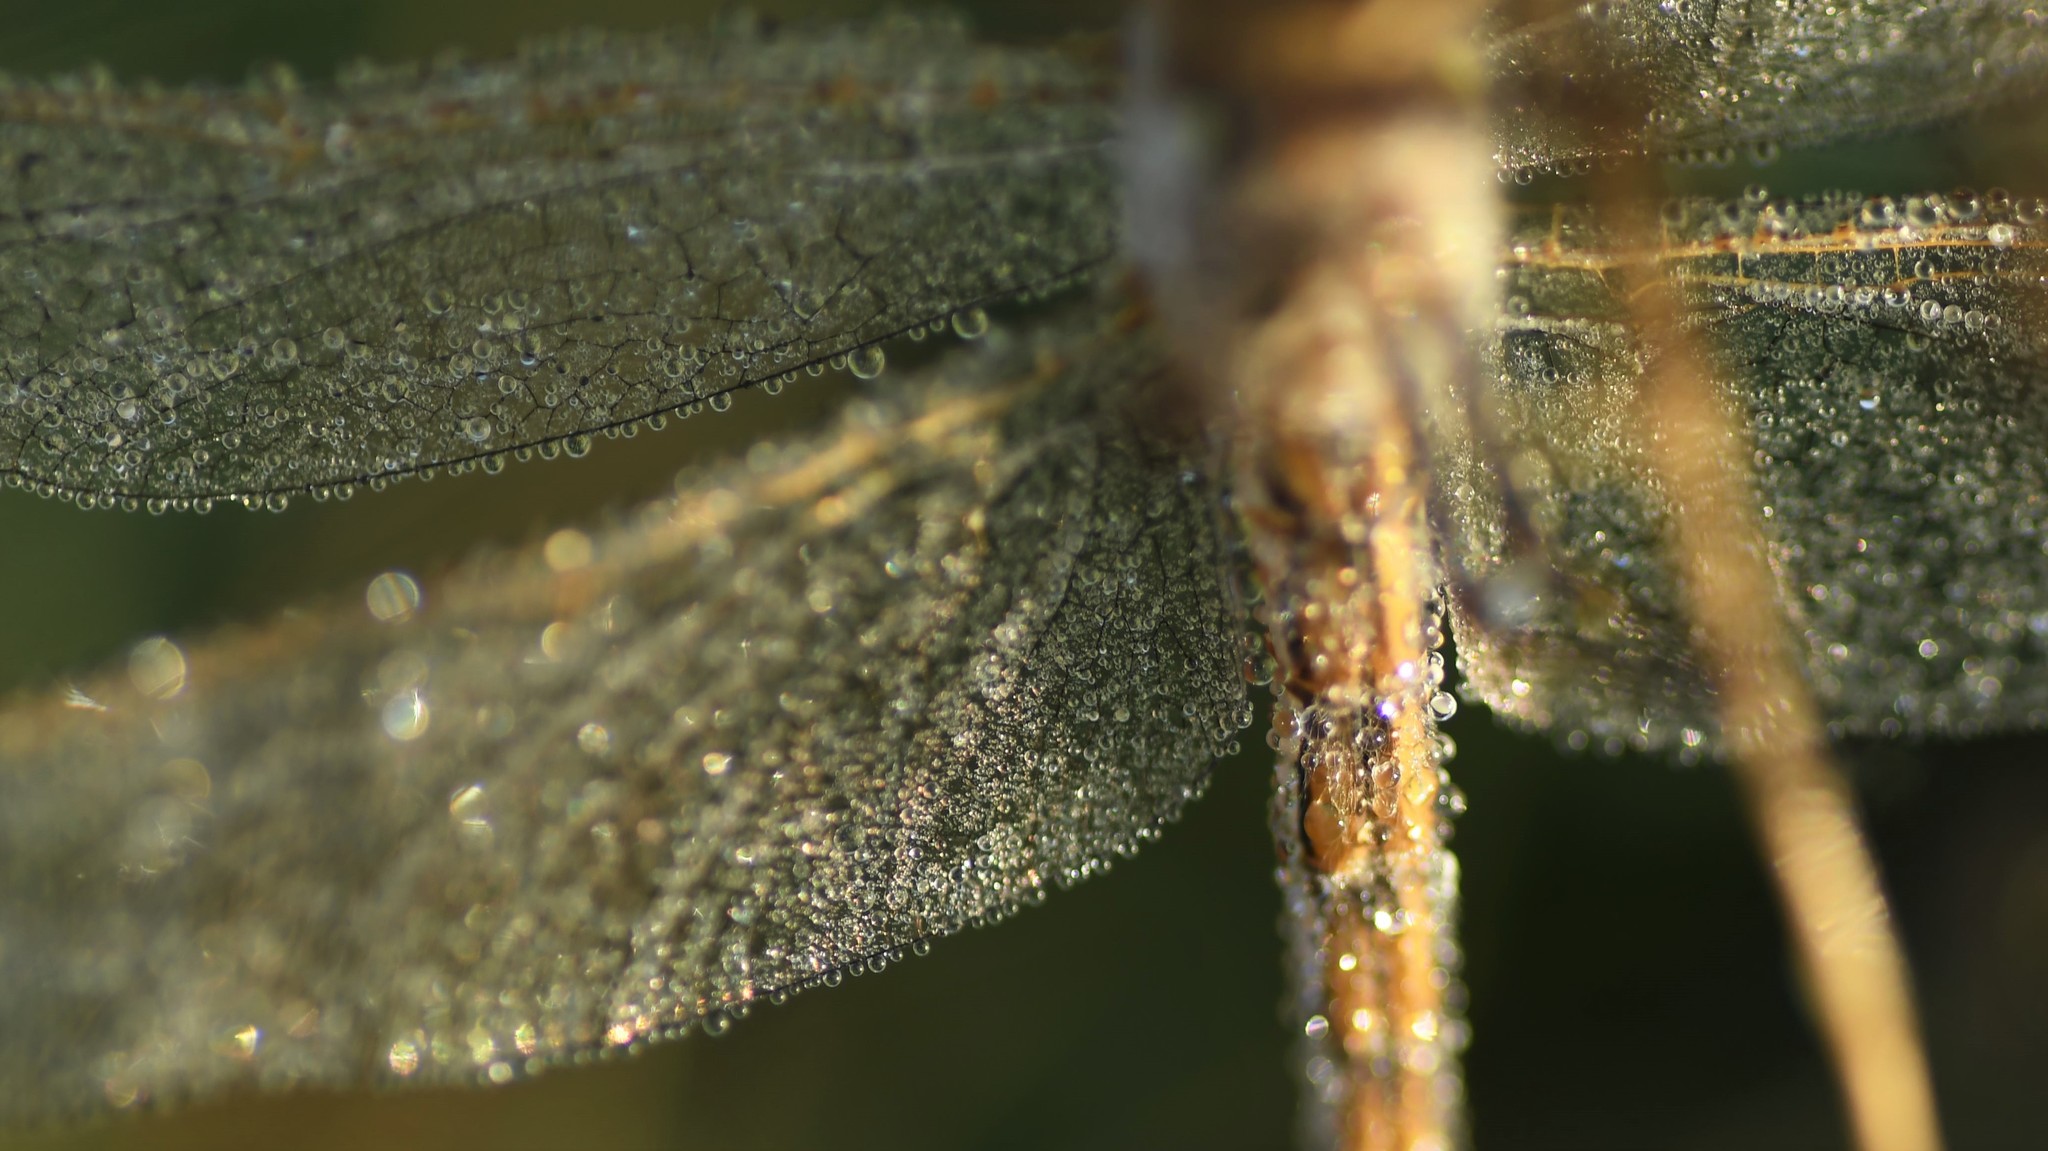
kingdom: Animalia
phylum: Arthropoda
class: Insecta
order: Odonata
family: Libellulidae
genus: Sympetrum
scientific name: Sympetrum corruptum
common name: Variegated meadowhawk
